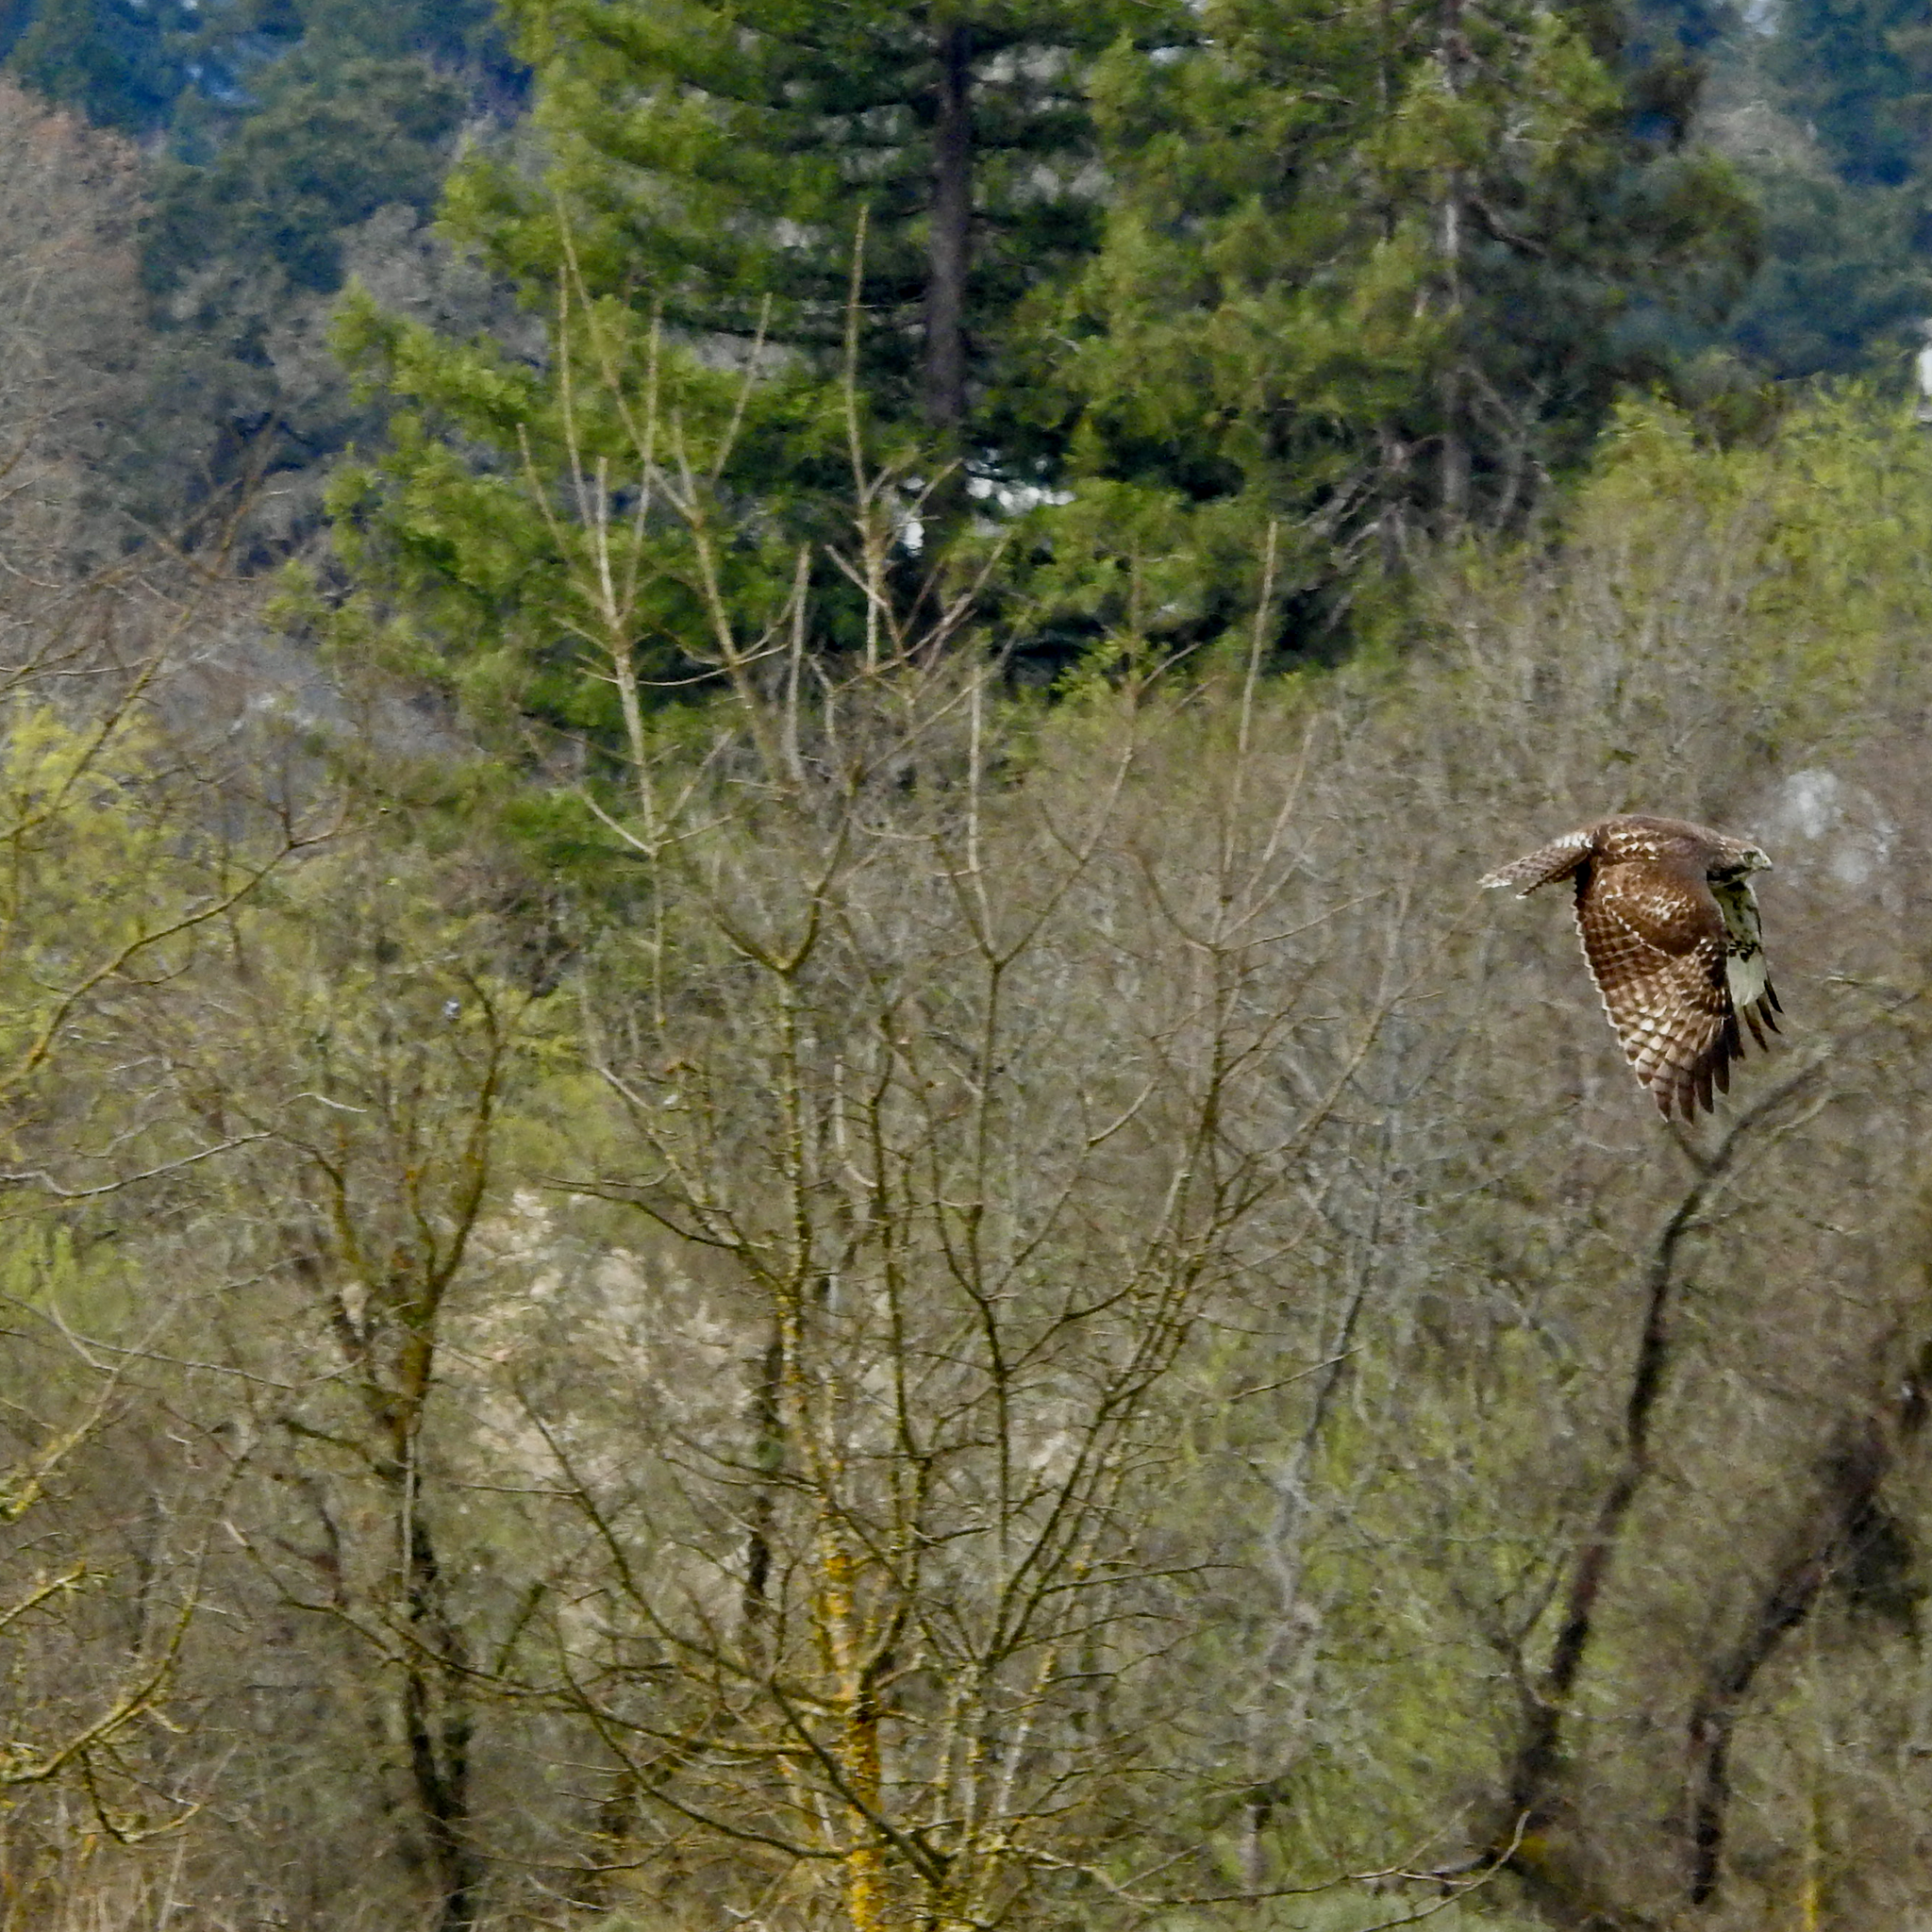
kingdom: Animalia
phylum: Chordata
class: Aves
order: Accipitriformes
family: Accipitridae
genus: Buteo
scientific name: Buteo jamaicensis
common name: Red-tailed hawk
